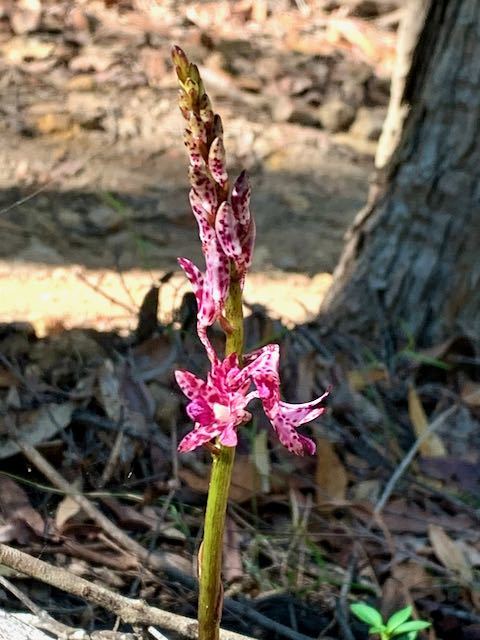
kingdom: Plantae
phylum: Tracheophyta
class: Liliopsida
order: Asparagales
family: Orchidaceae
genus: Dipodium
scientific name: Dipodium variegatum
